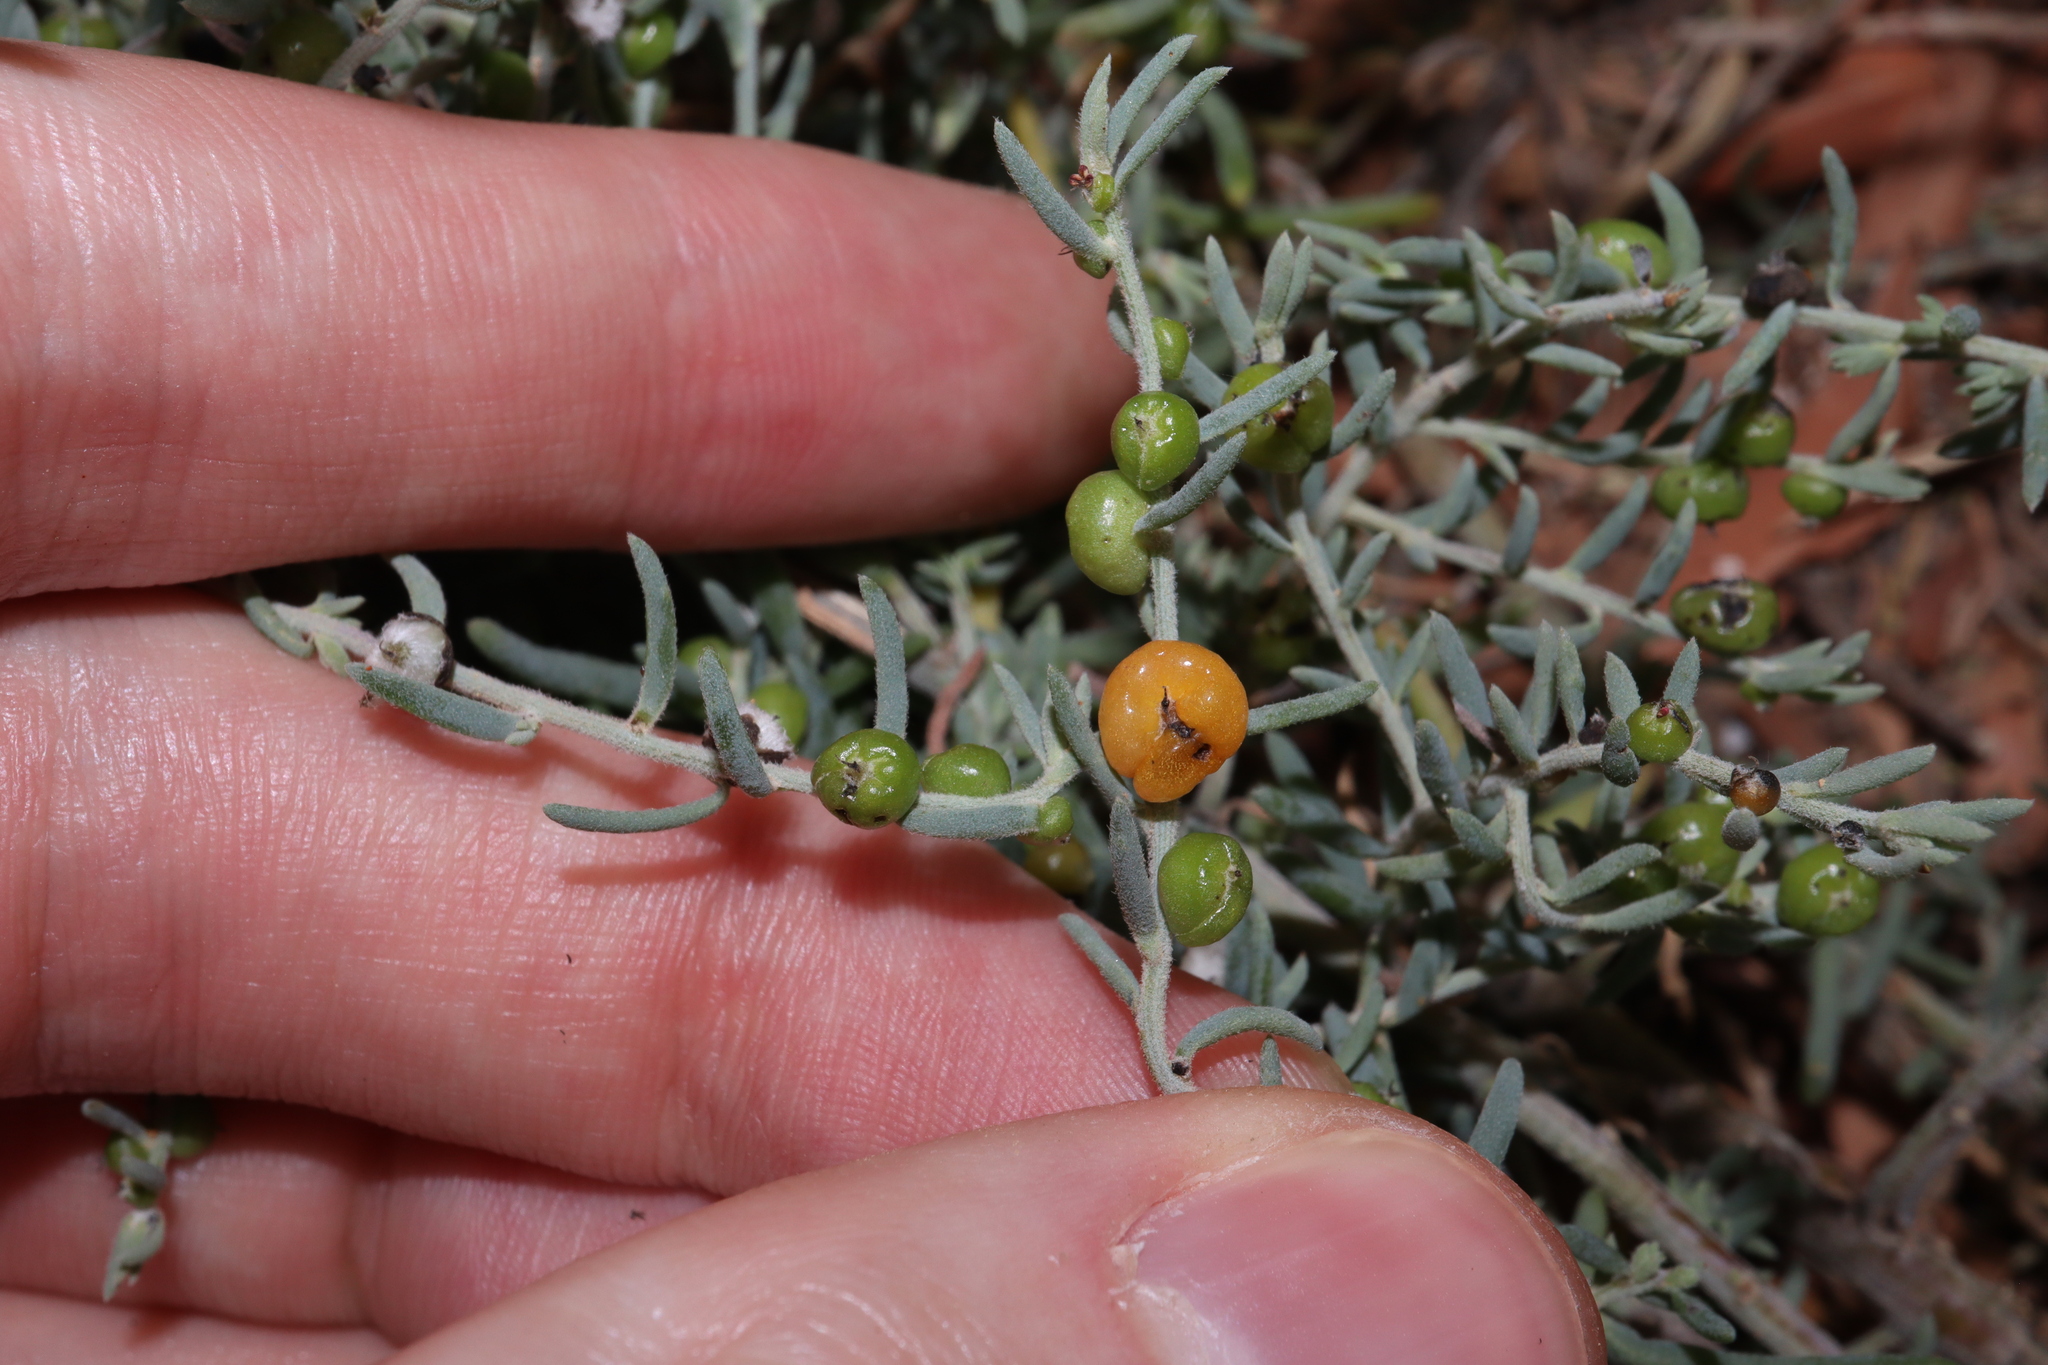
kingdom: Plantae
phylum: Tracheophyta
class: Magnoliopsida
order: Caryophyllales
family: Amaranthaceae
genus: Enchylaena
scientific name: Enchylaena tomentosa
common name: Ruby saltbush
